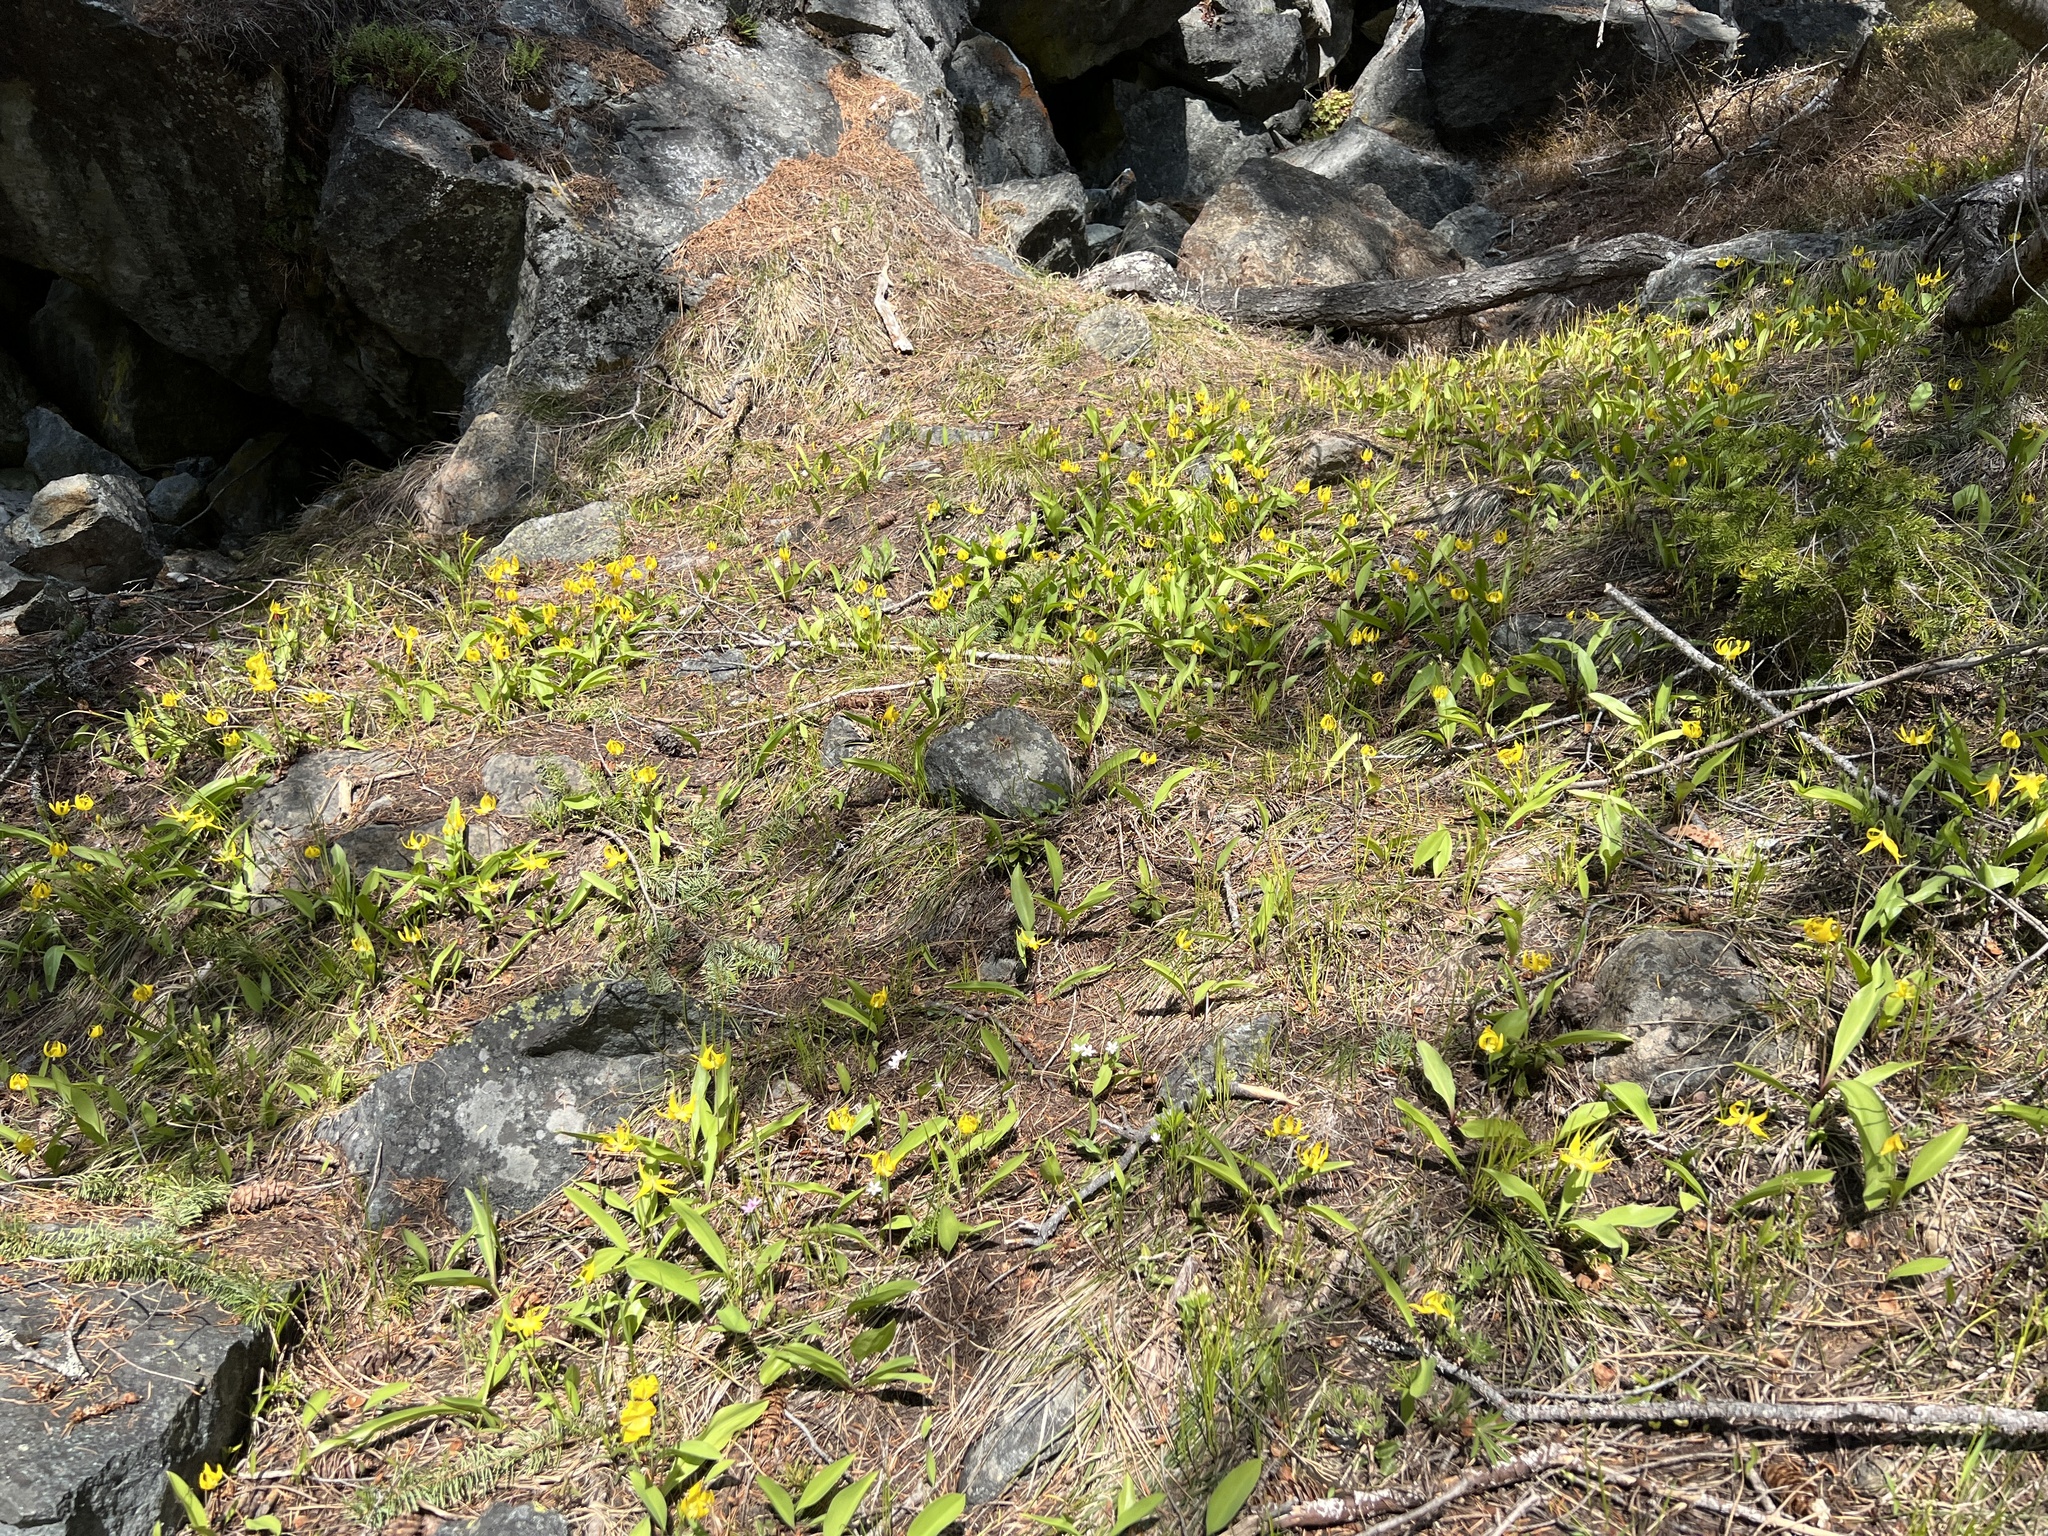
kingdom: Plantae
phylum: Tracheophyta
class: Liliopsida
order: Liliales
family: Liliaceae
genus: Erythronium
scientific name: Erythronium grandiflorum
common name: Avalanche-lily
